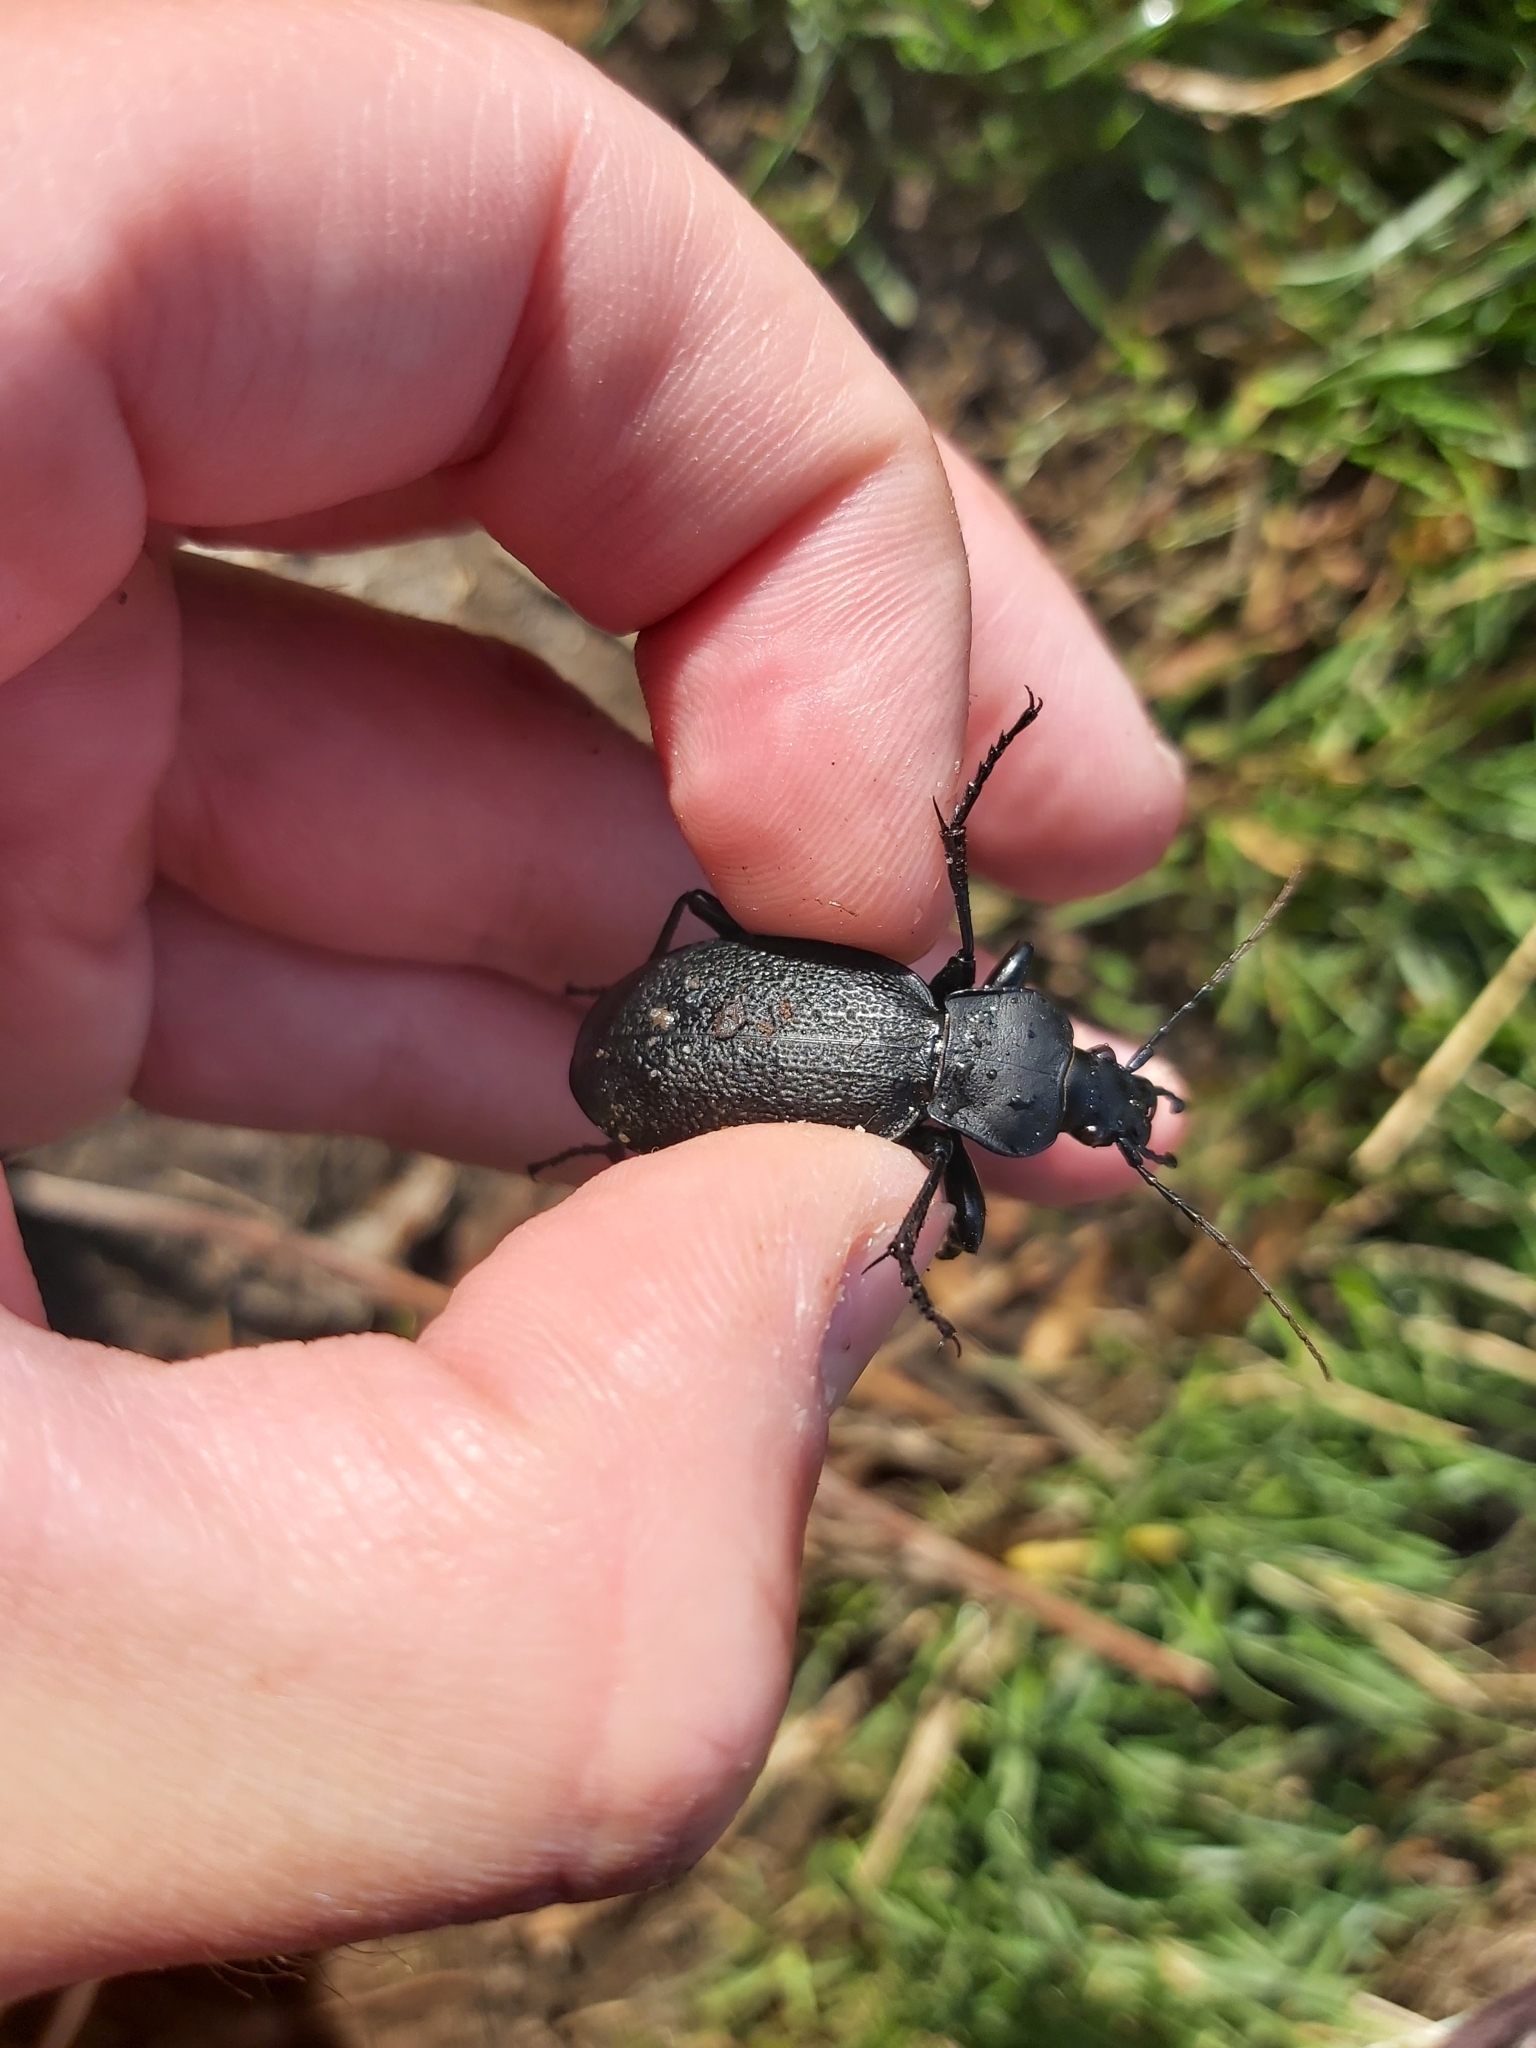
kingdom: Animalia
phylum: Arthropoda
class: Insecta
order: Coleoptera
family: Carabidae
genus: Carabus
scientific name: Carabus coriaceus
